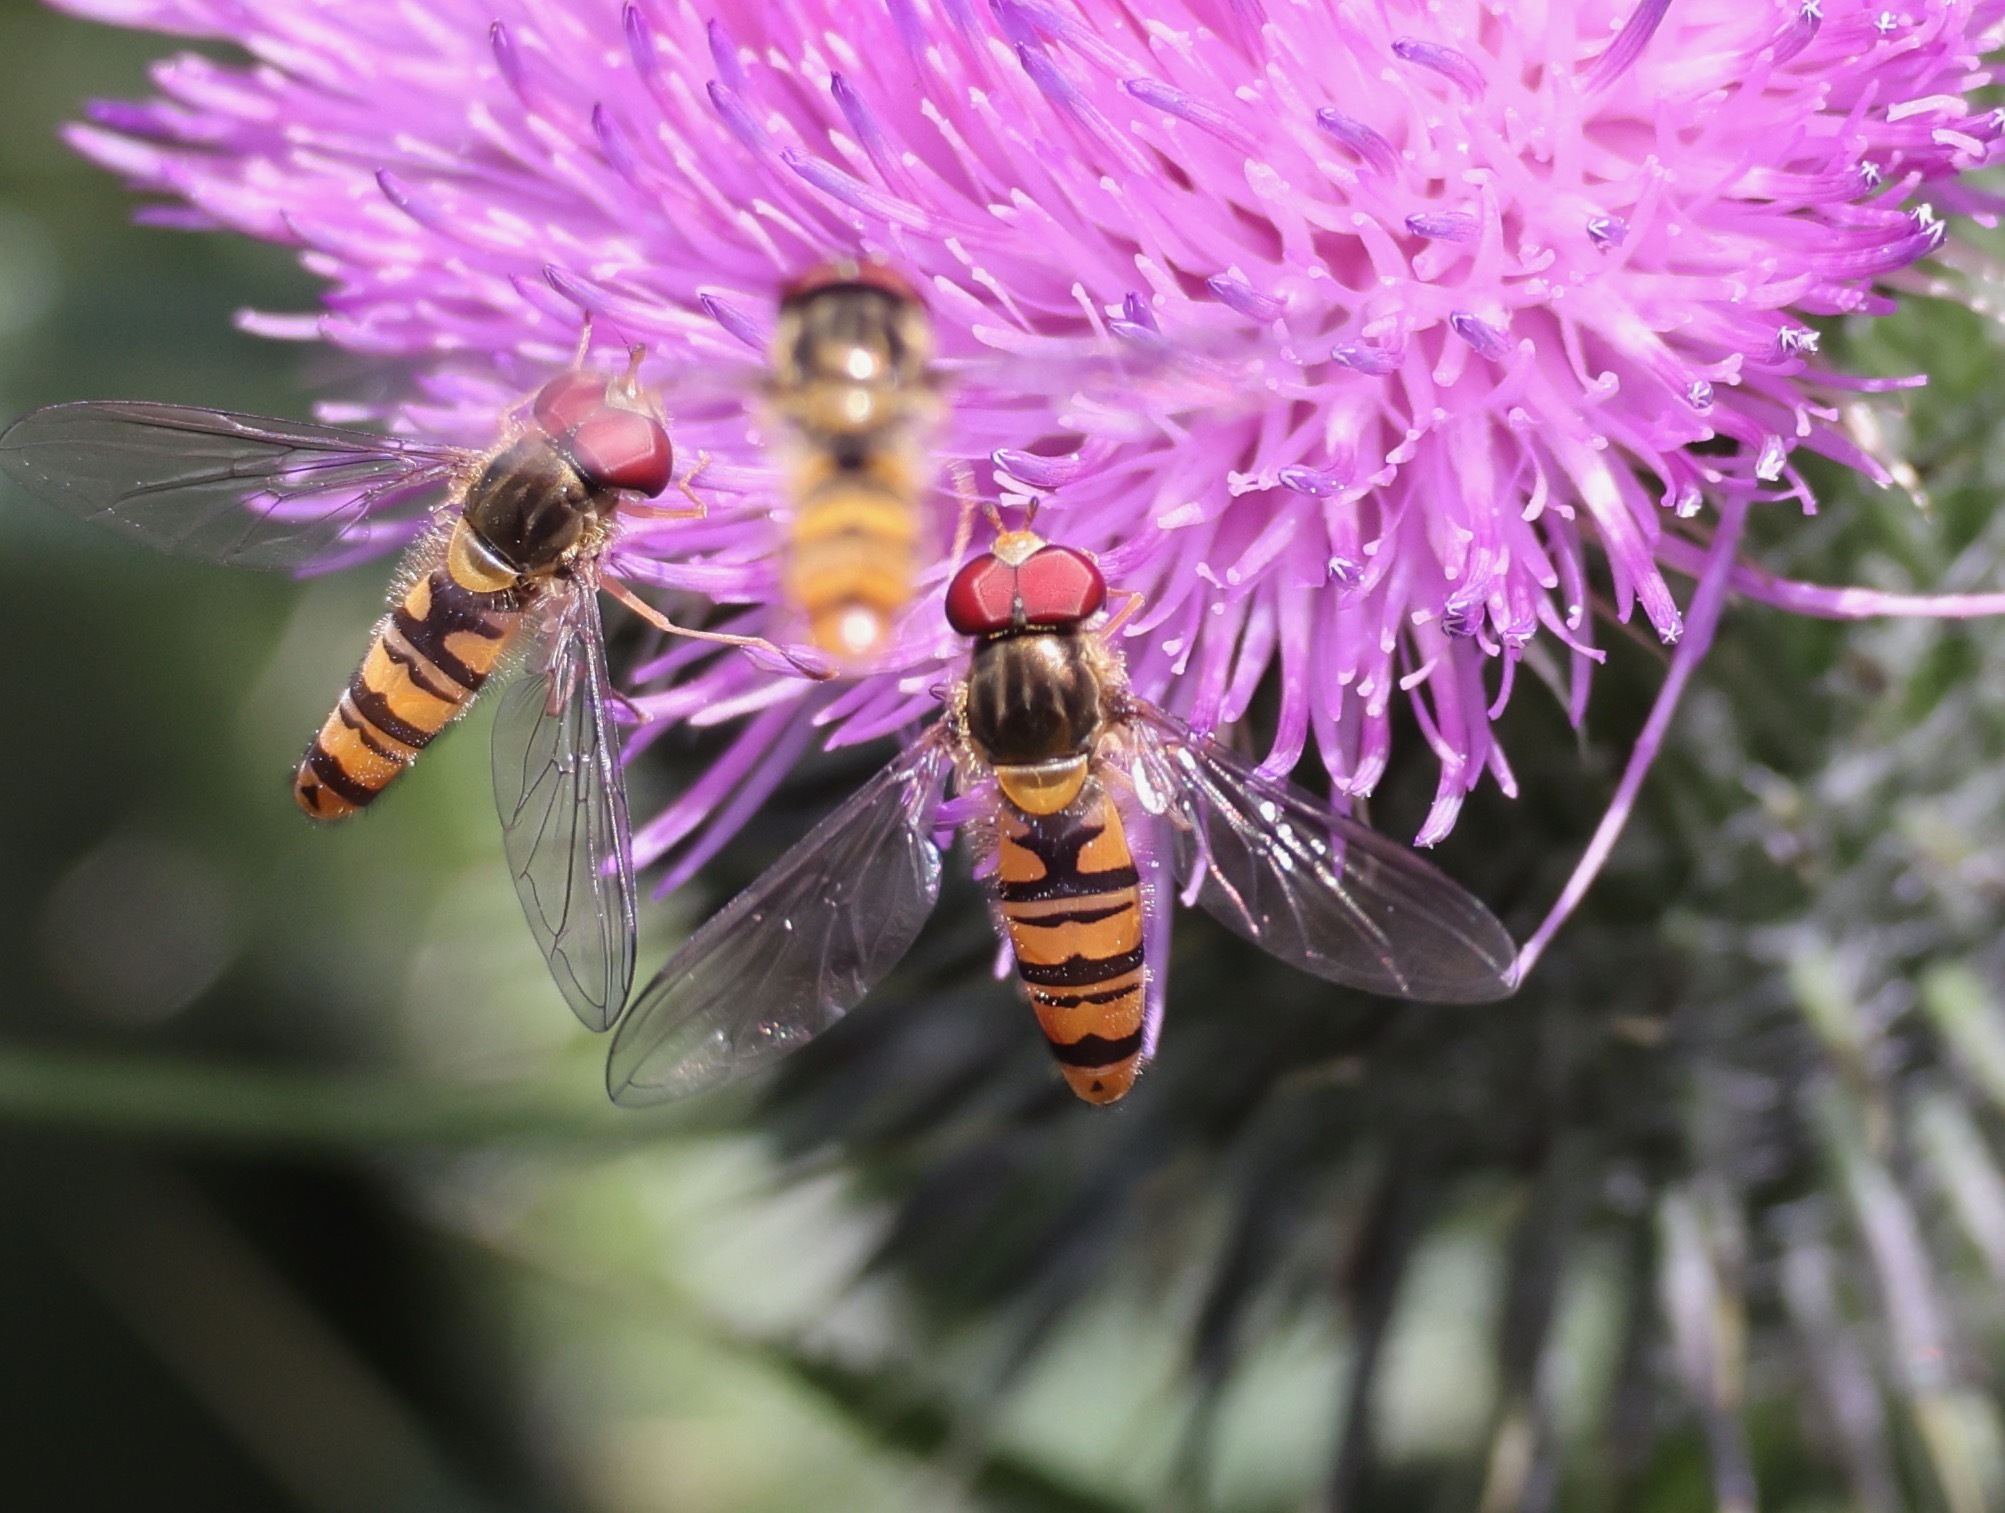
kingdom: Animalia
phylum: Arthropoda
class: Insecta
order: Diptera
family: Syrphidae
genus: Episyrphus
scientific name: Episyrphus balteatus
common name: Marmalade hoverfly
